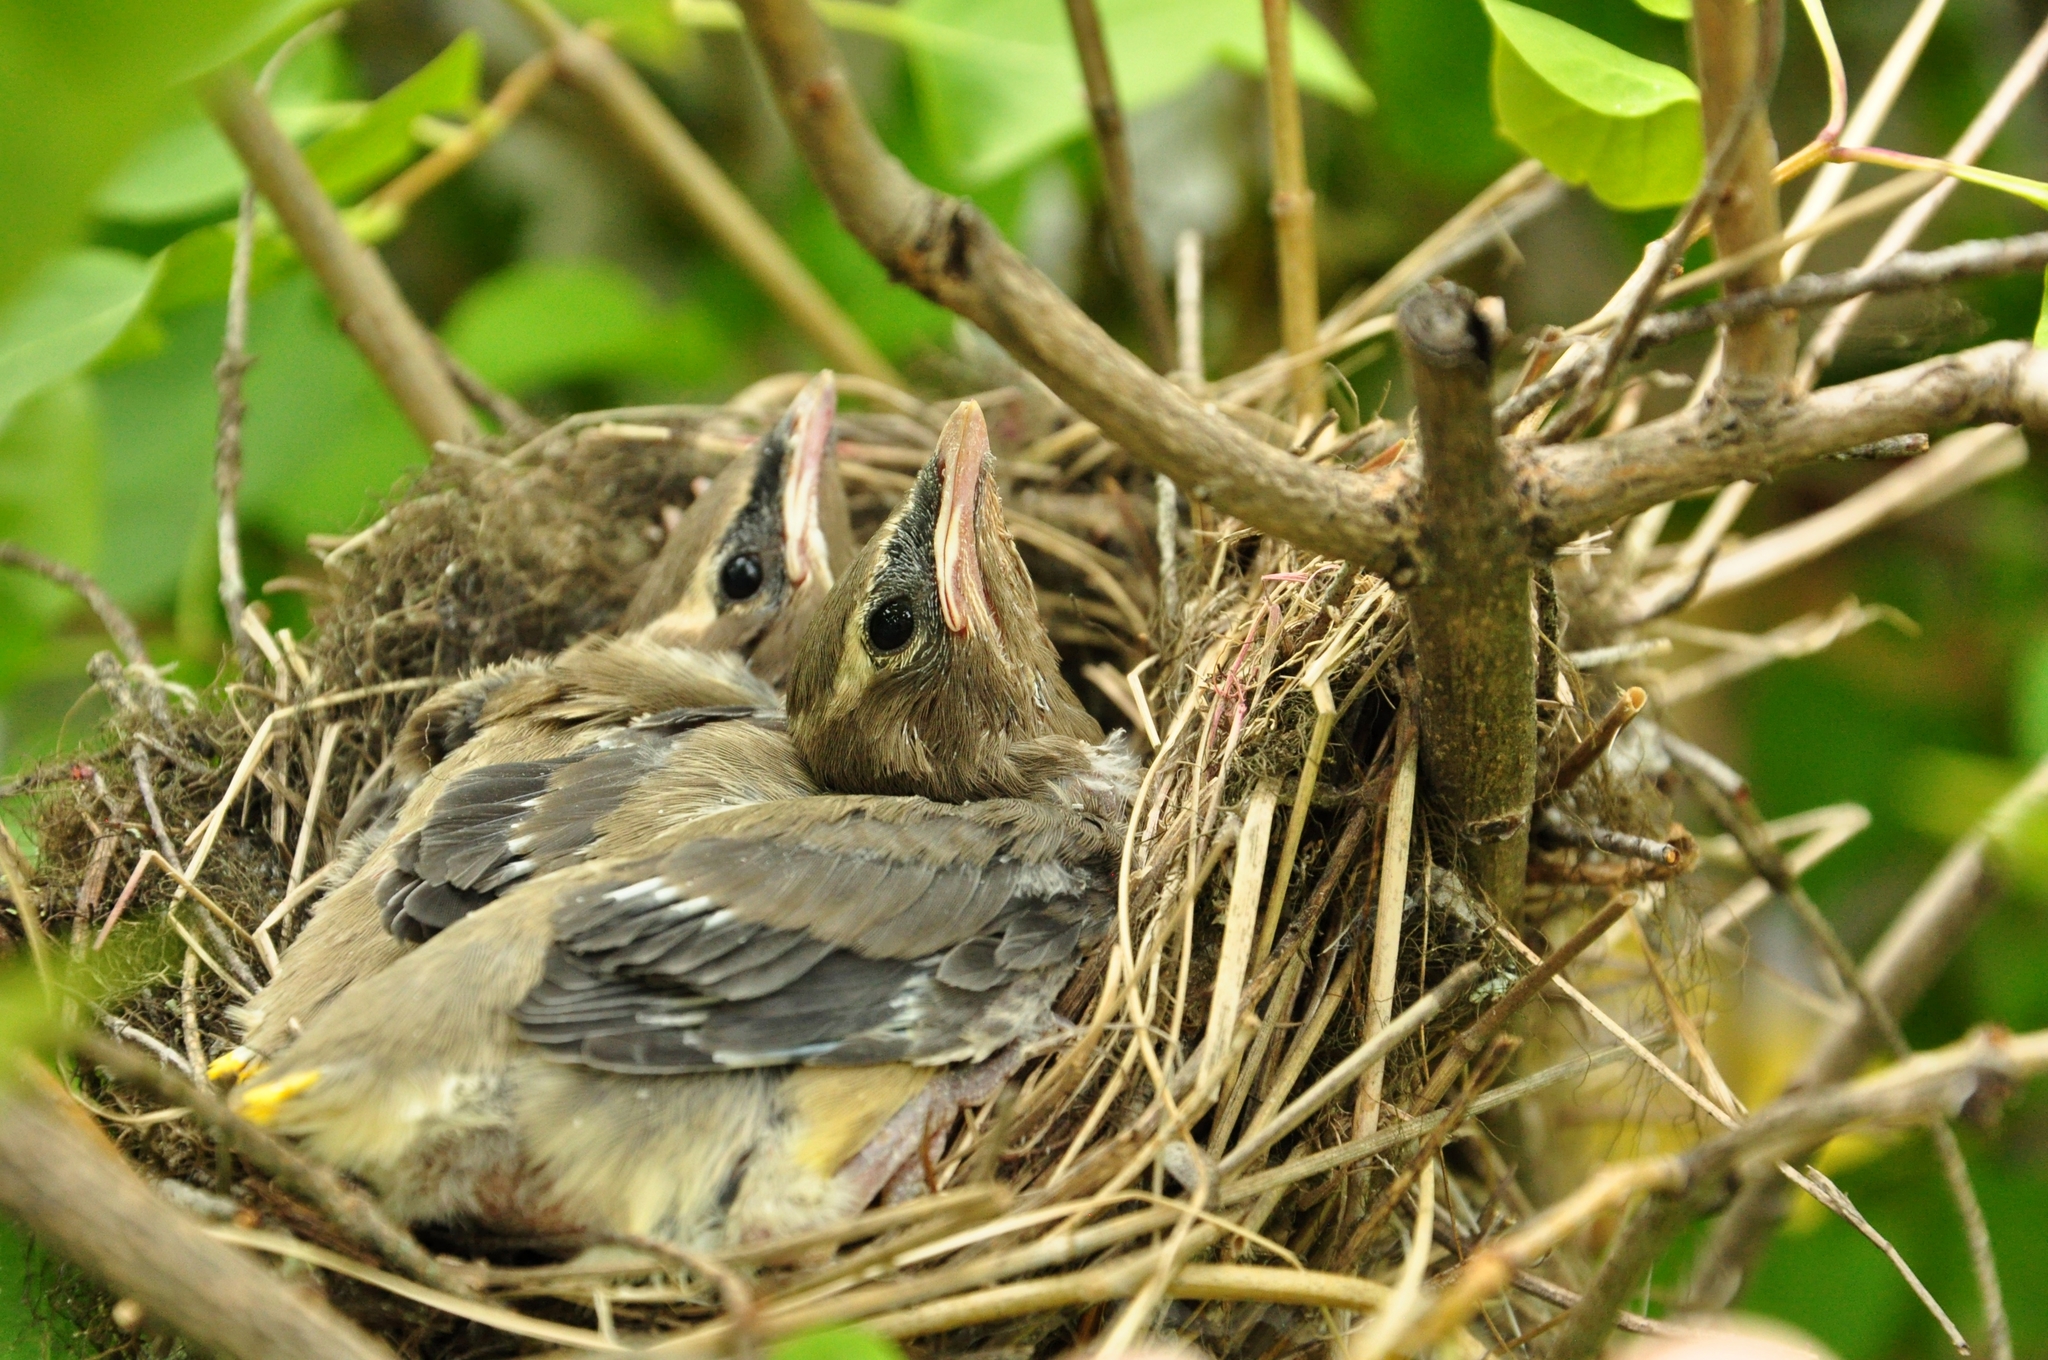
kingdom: Animalia
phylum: Chordata
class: Aves
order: Passeriformes
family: Bombycillidae
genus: Bombycilla
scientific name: Bombycilla cedrorum
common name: Cedar waxwing
